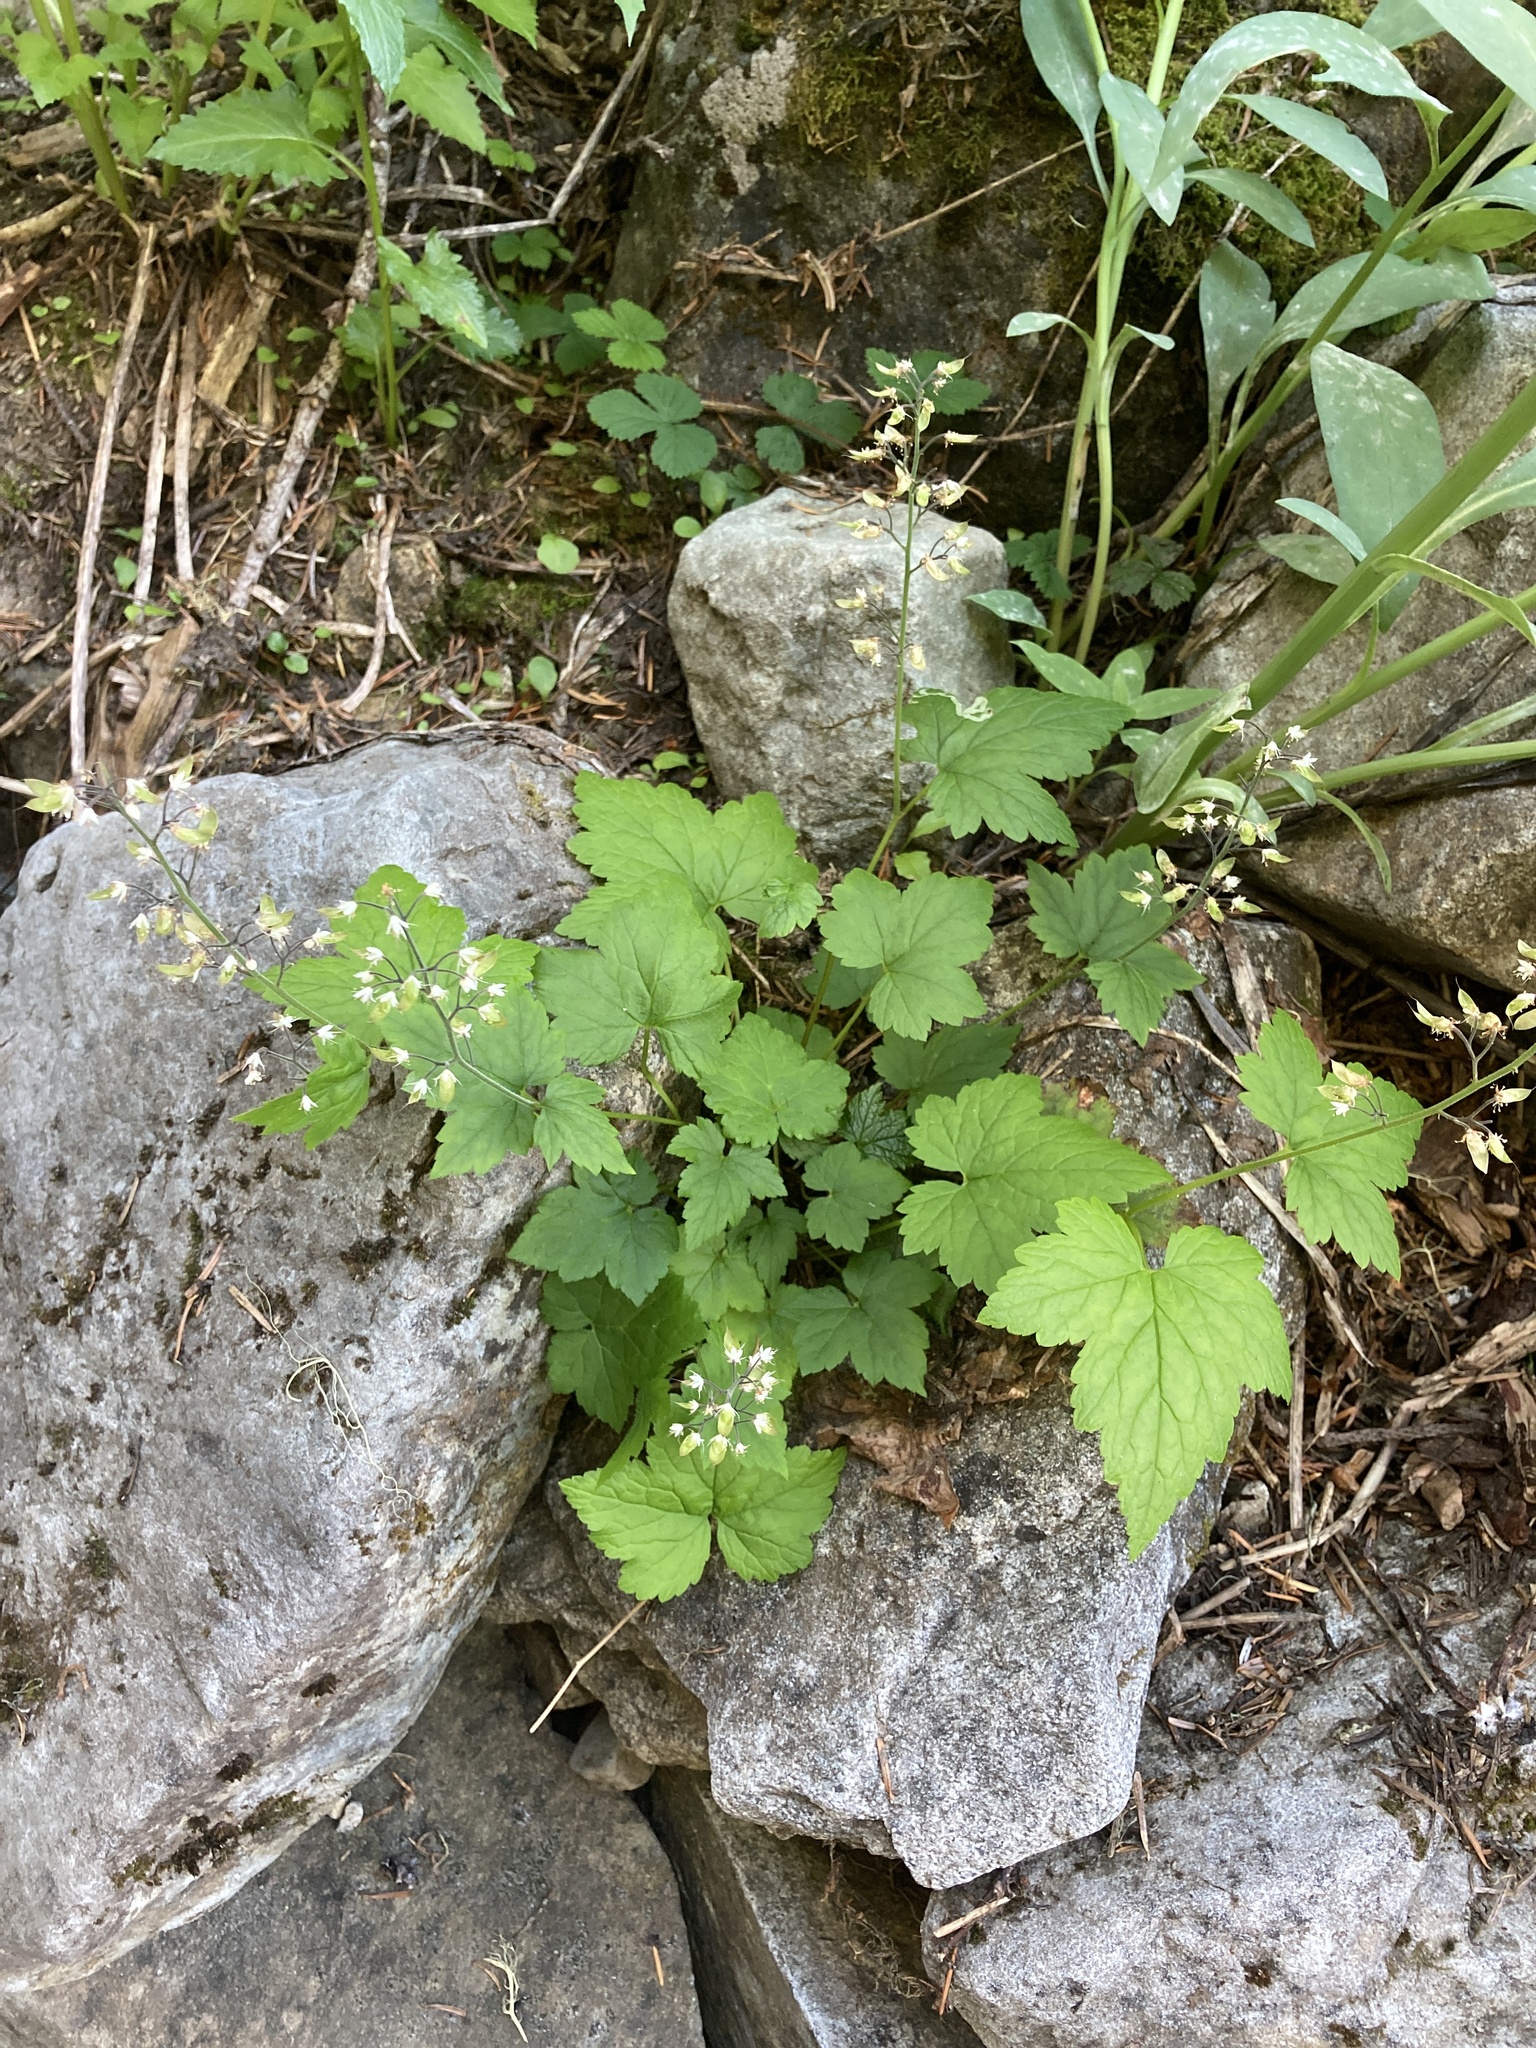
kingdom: Plantae
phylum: Tracheophyta
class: Magnoliopsida
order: Saxifragales
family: Saxifragaceae
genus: Tiarella
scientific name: Tiarella trifoliata
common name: Sugar-scoop
